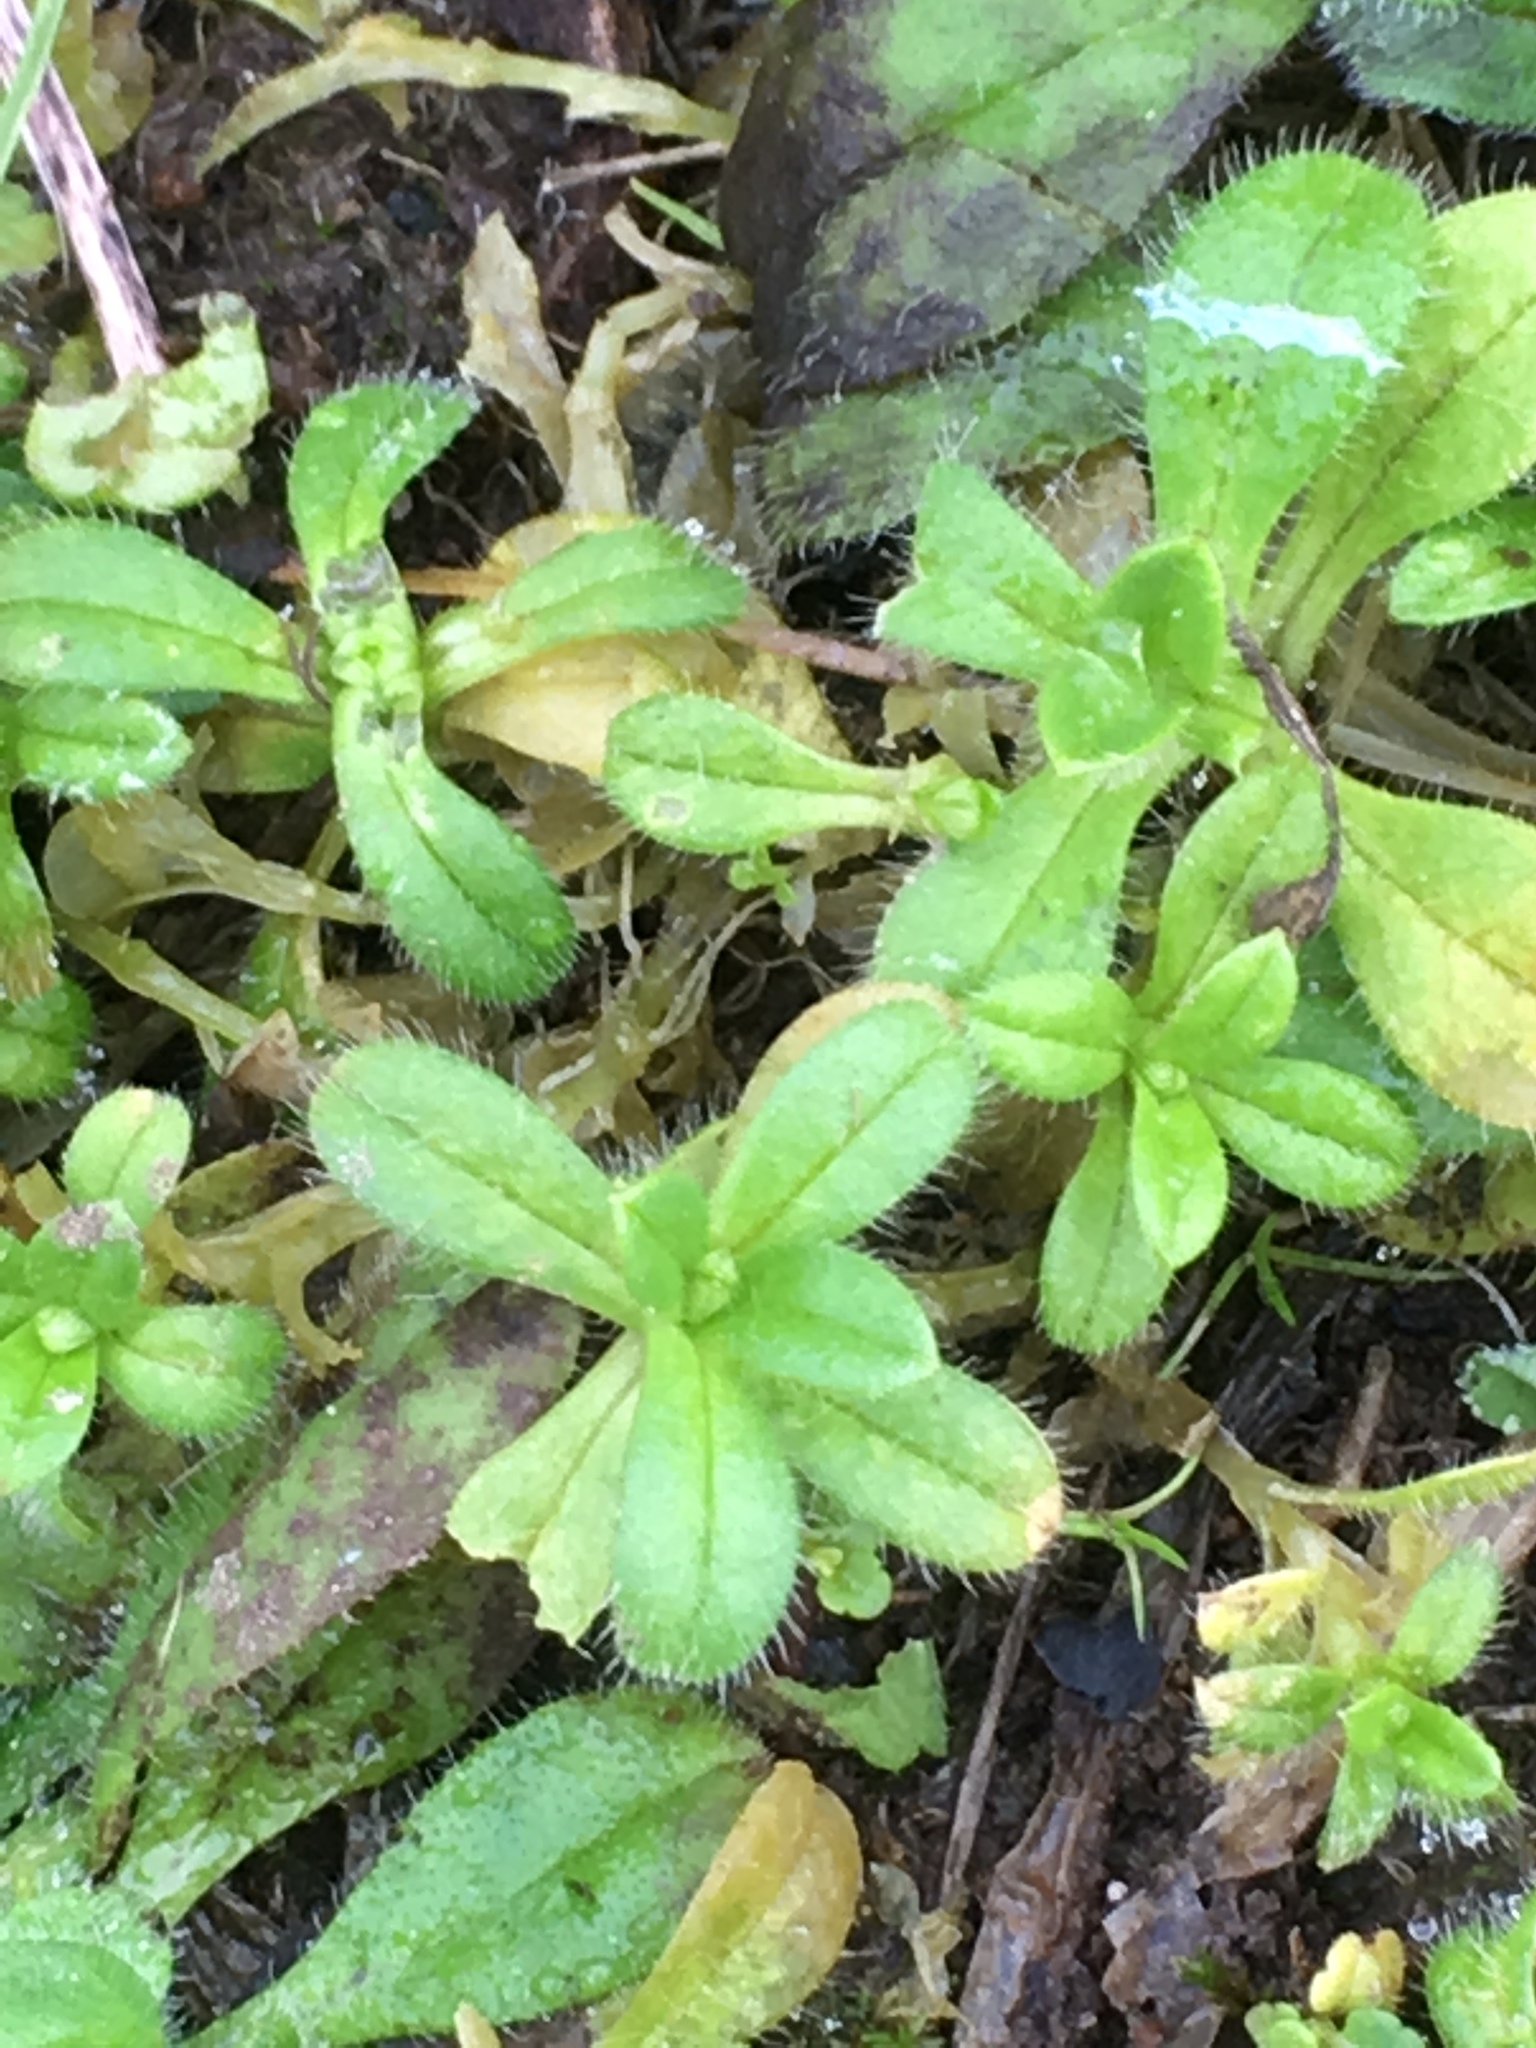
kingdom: Plantae
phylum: Tracheophyta
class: Magnoliopsida
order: Caryophyllales
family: Caryophyllaceae
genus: Cerastium
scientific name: Cerastium glomeratum
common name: Sticky chickweed
